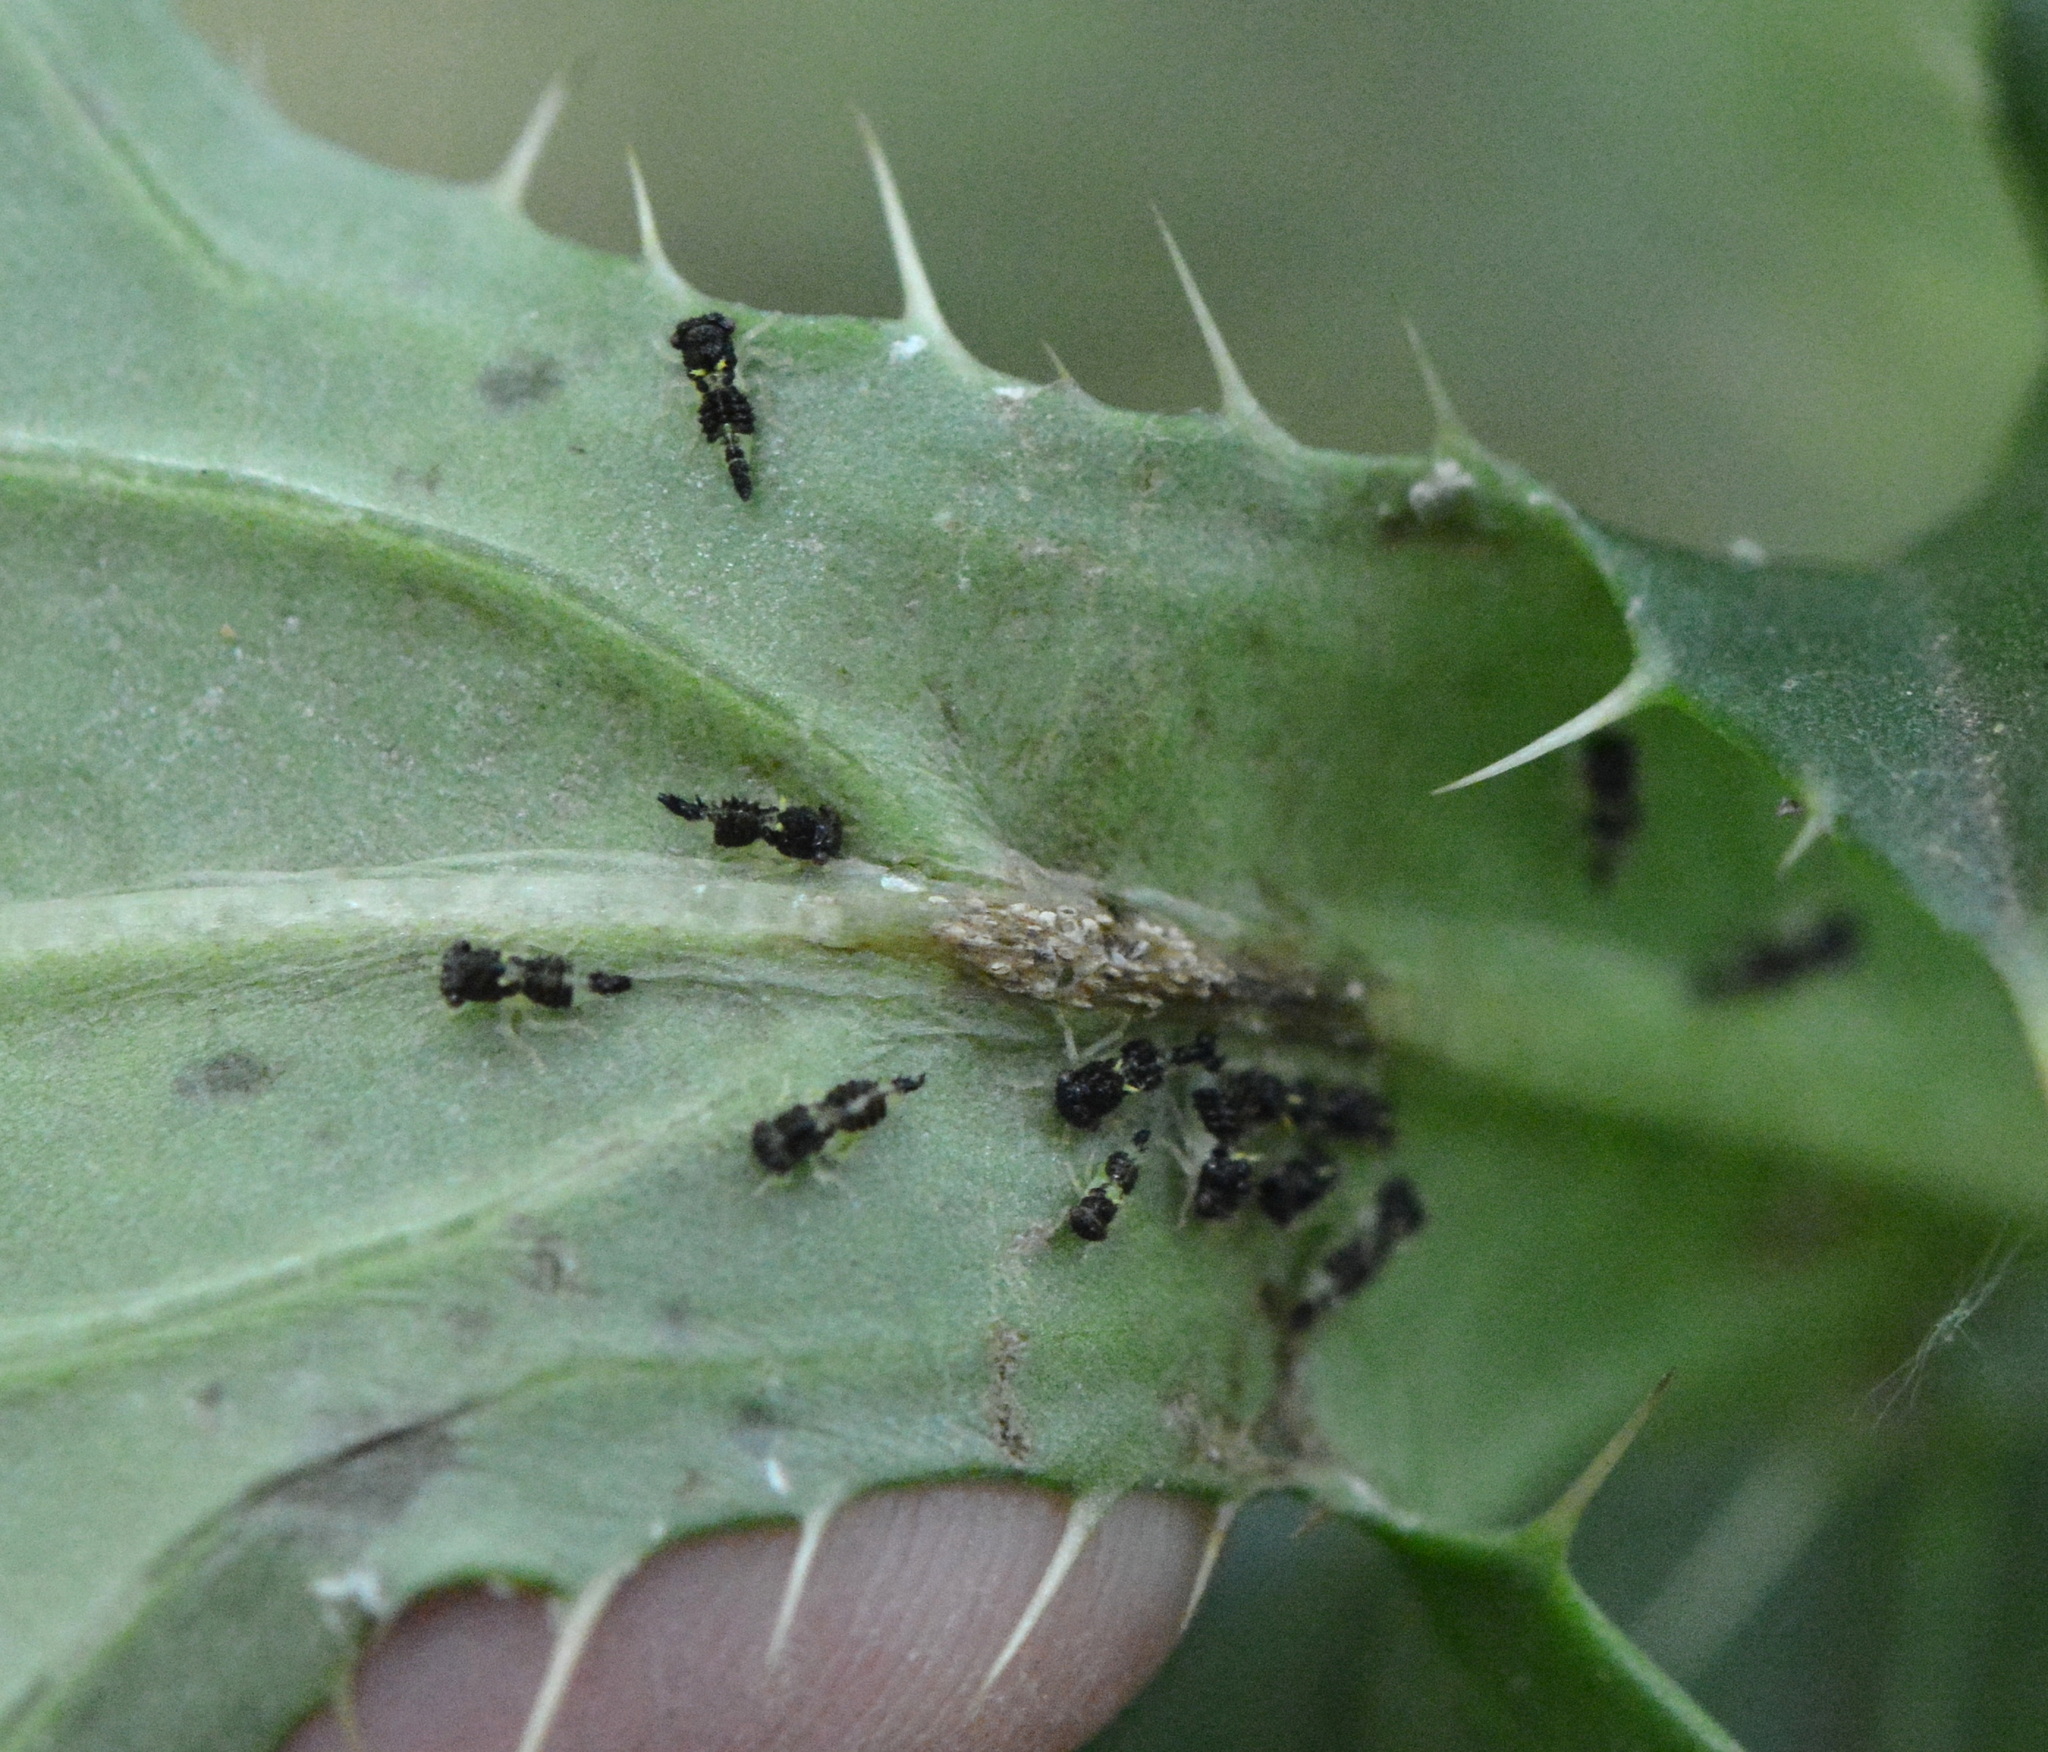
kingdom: Animalia
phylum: Arthropoda
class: Insecta
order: Hemiptera
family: Membracidae
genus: Entylia
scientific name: Entylia carinata
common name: Keeled treehopper
